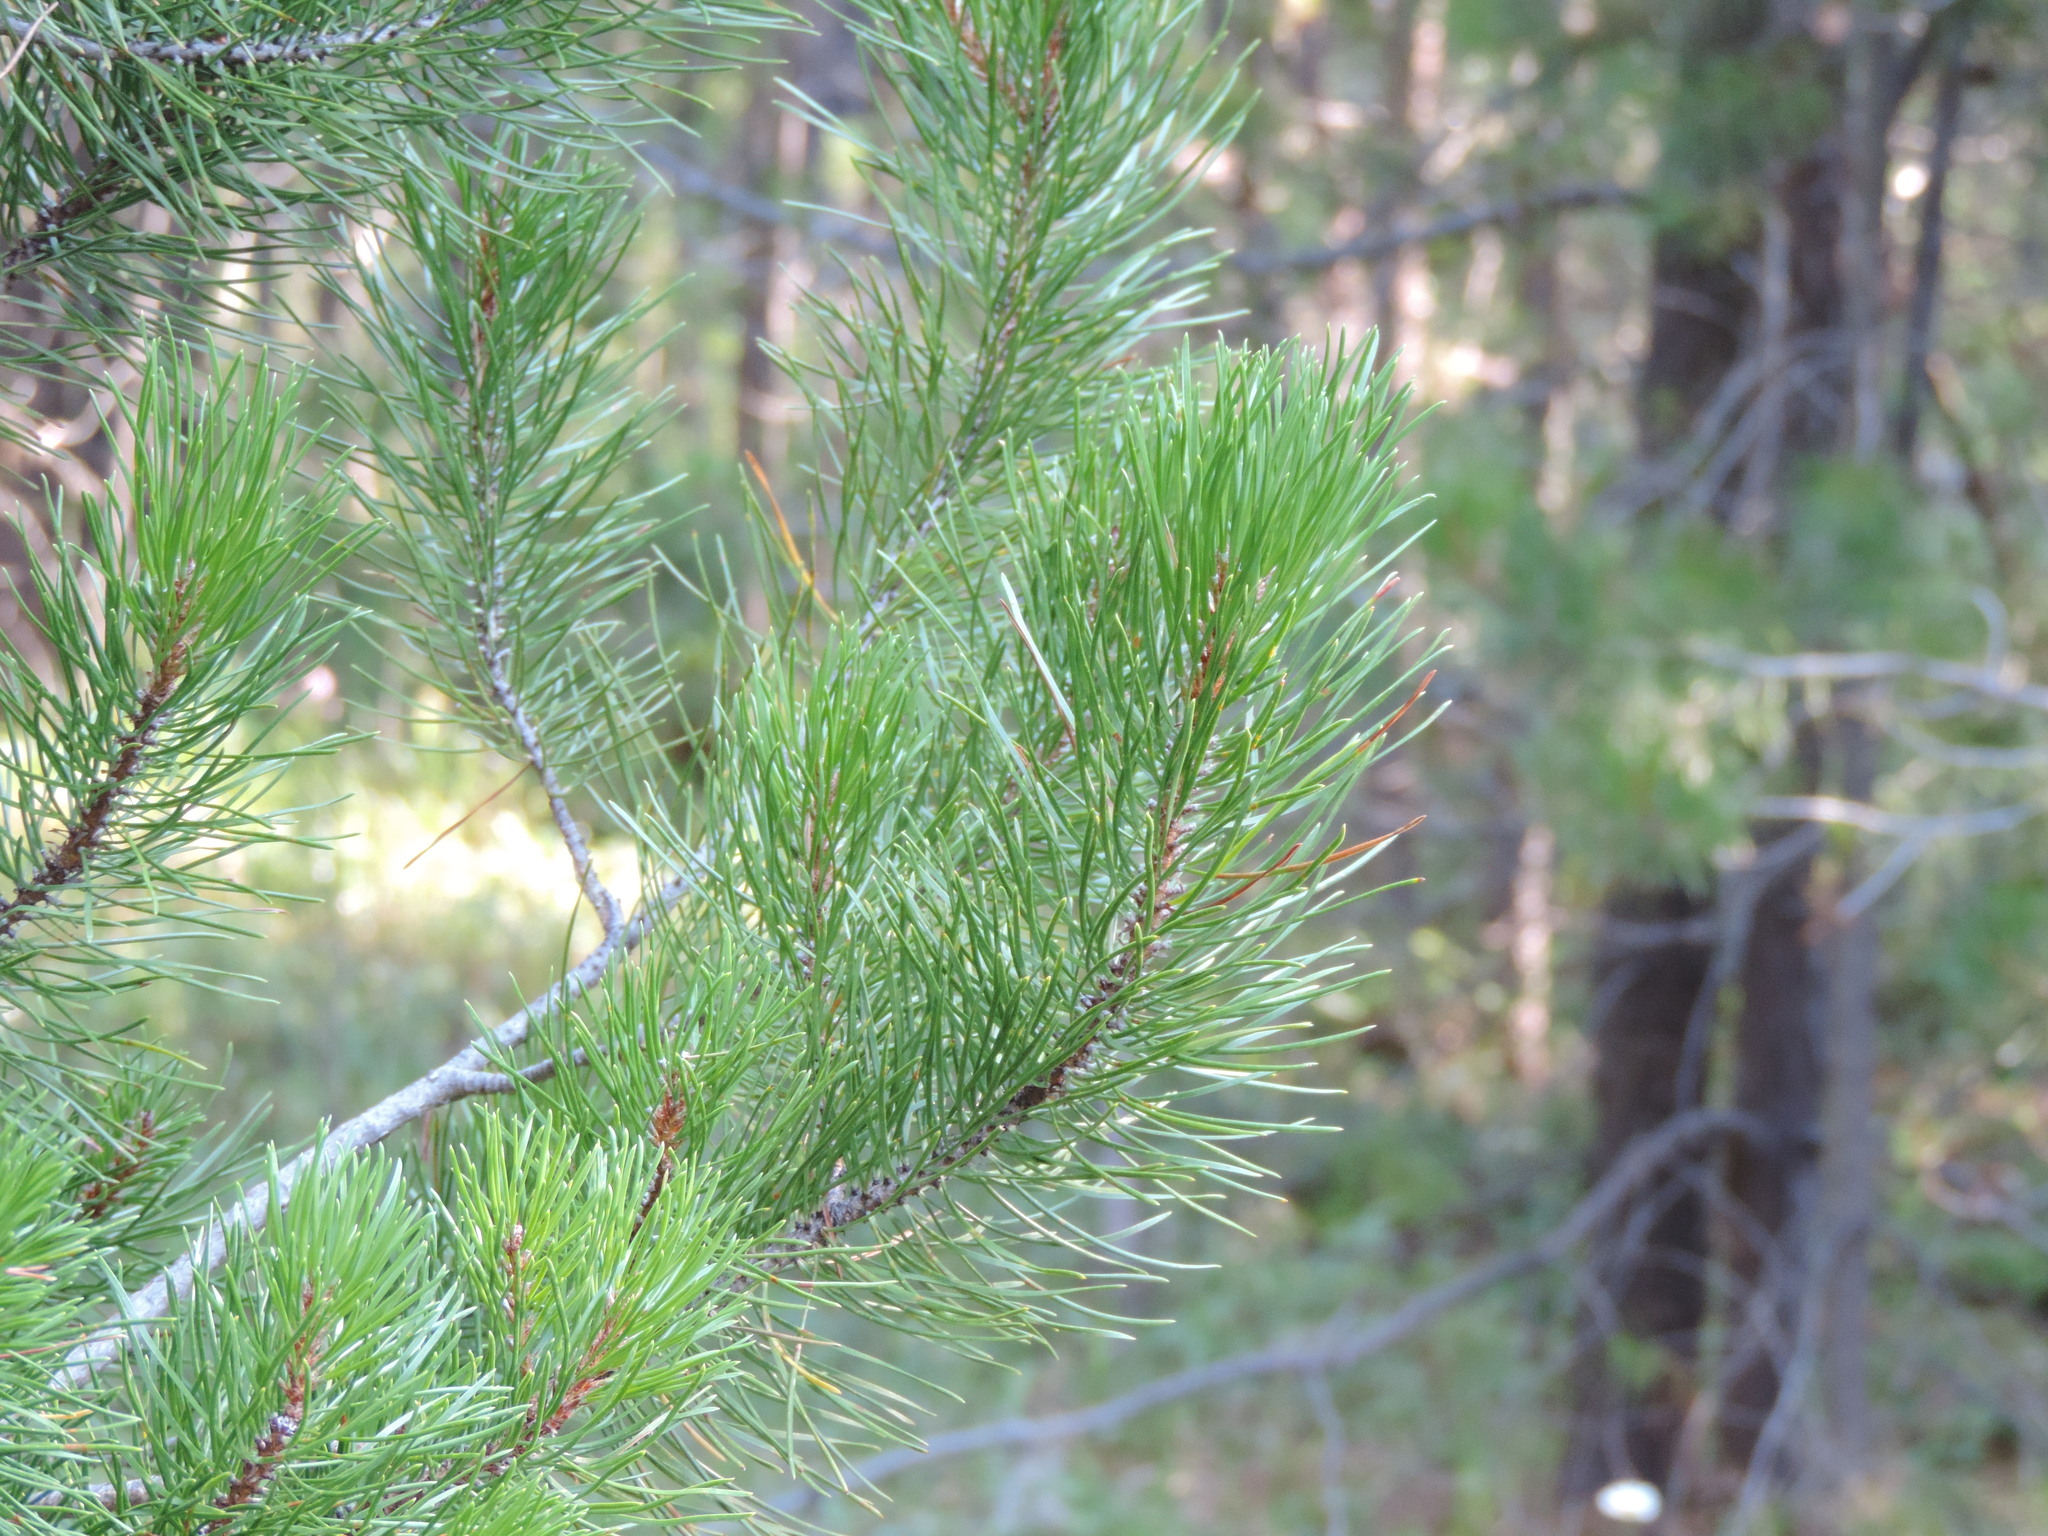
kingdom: Plantae
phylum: Tracheophyta
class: Pinopsida
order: Pinales
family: Pinaceae
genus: Pinus
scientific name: Pinus contorta
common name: Lodgepole pine
